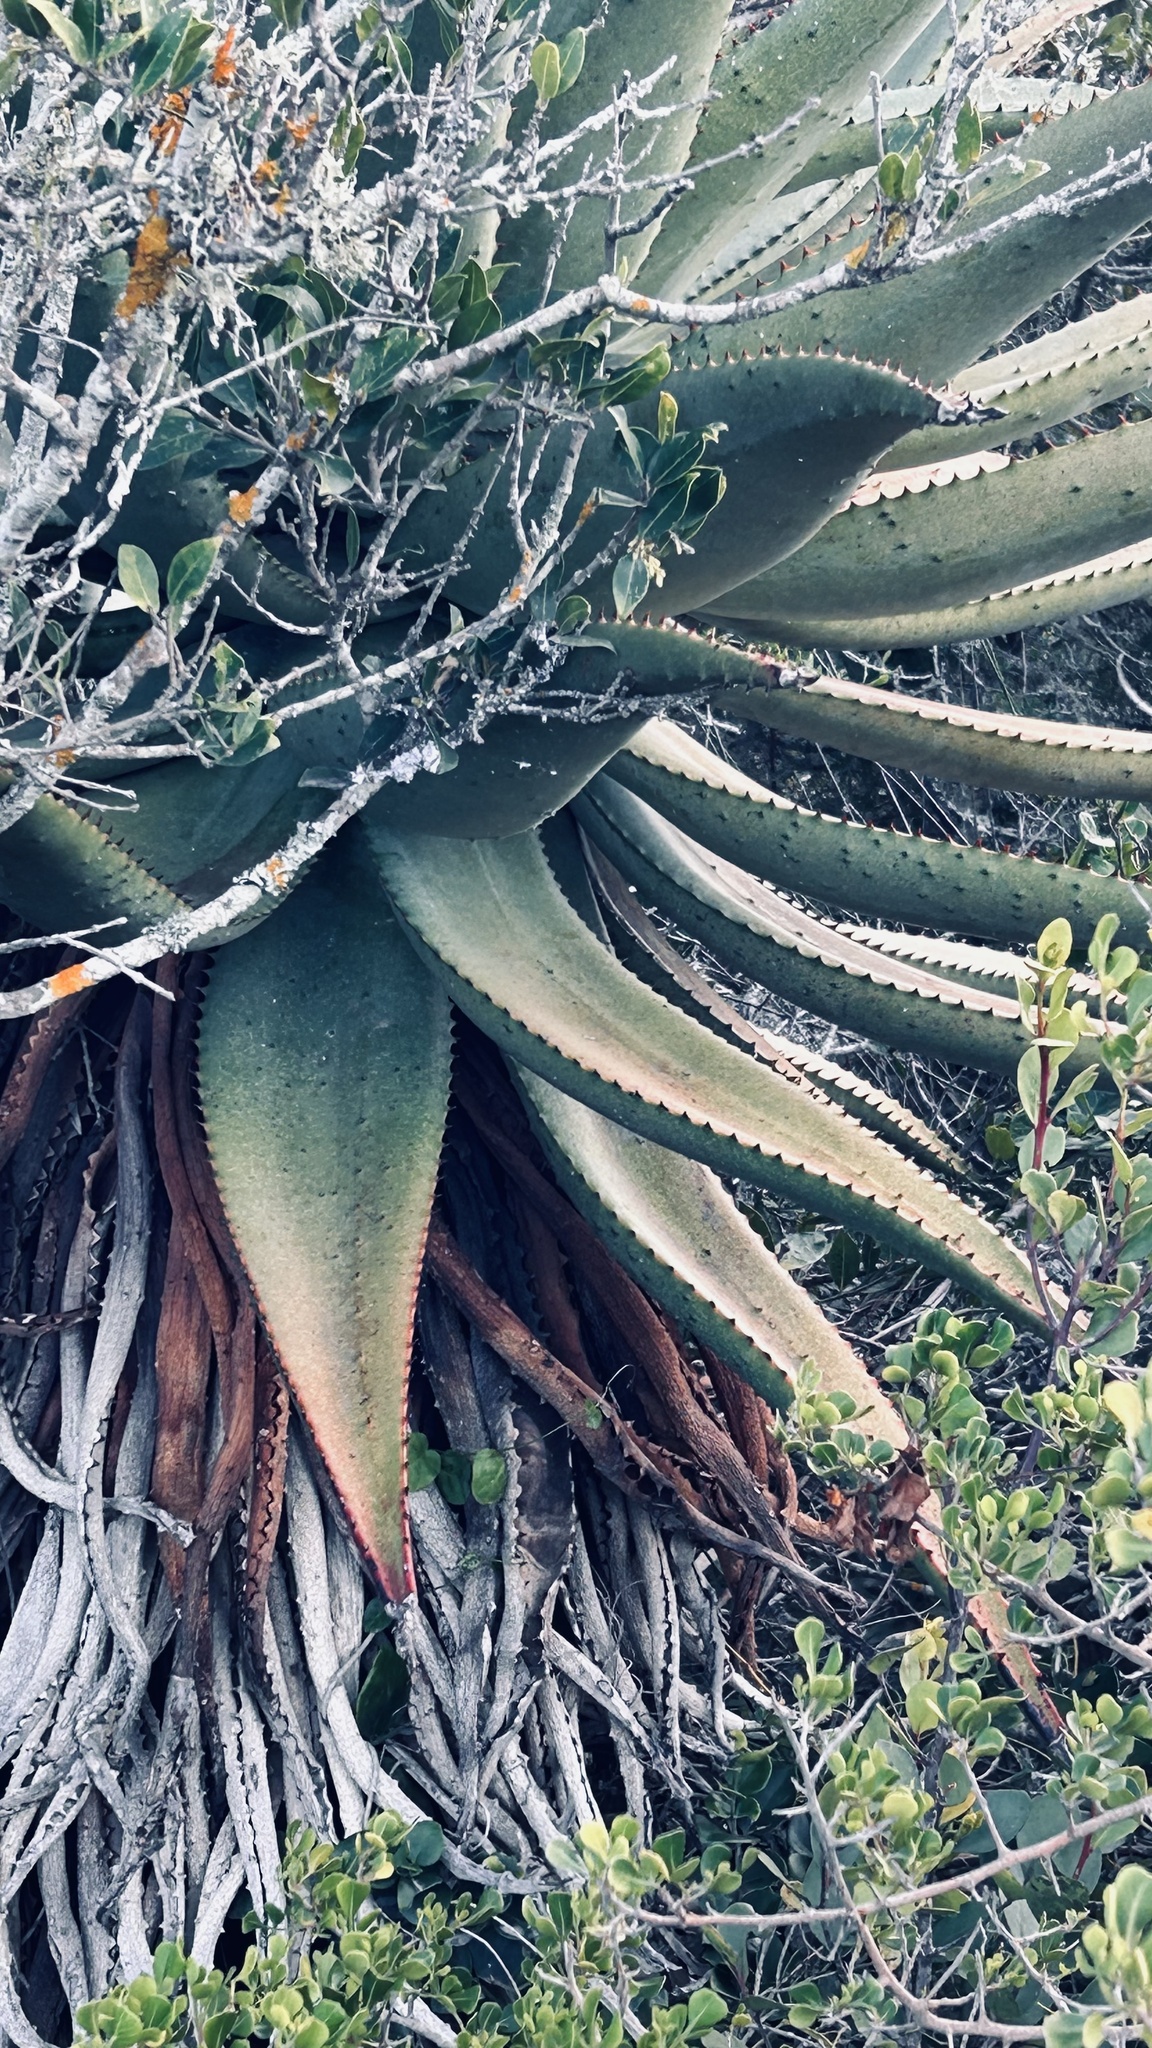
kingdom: Plantae
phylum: Tracheophyta
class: Liliopsida
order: Asparagales
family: Asphodelaceae
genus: Aloe
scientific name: Aloe ferox
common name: Bitter aloe
